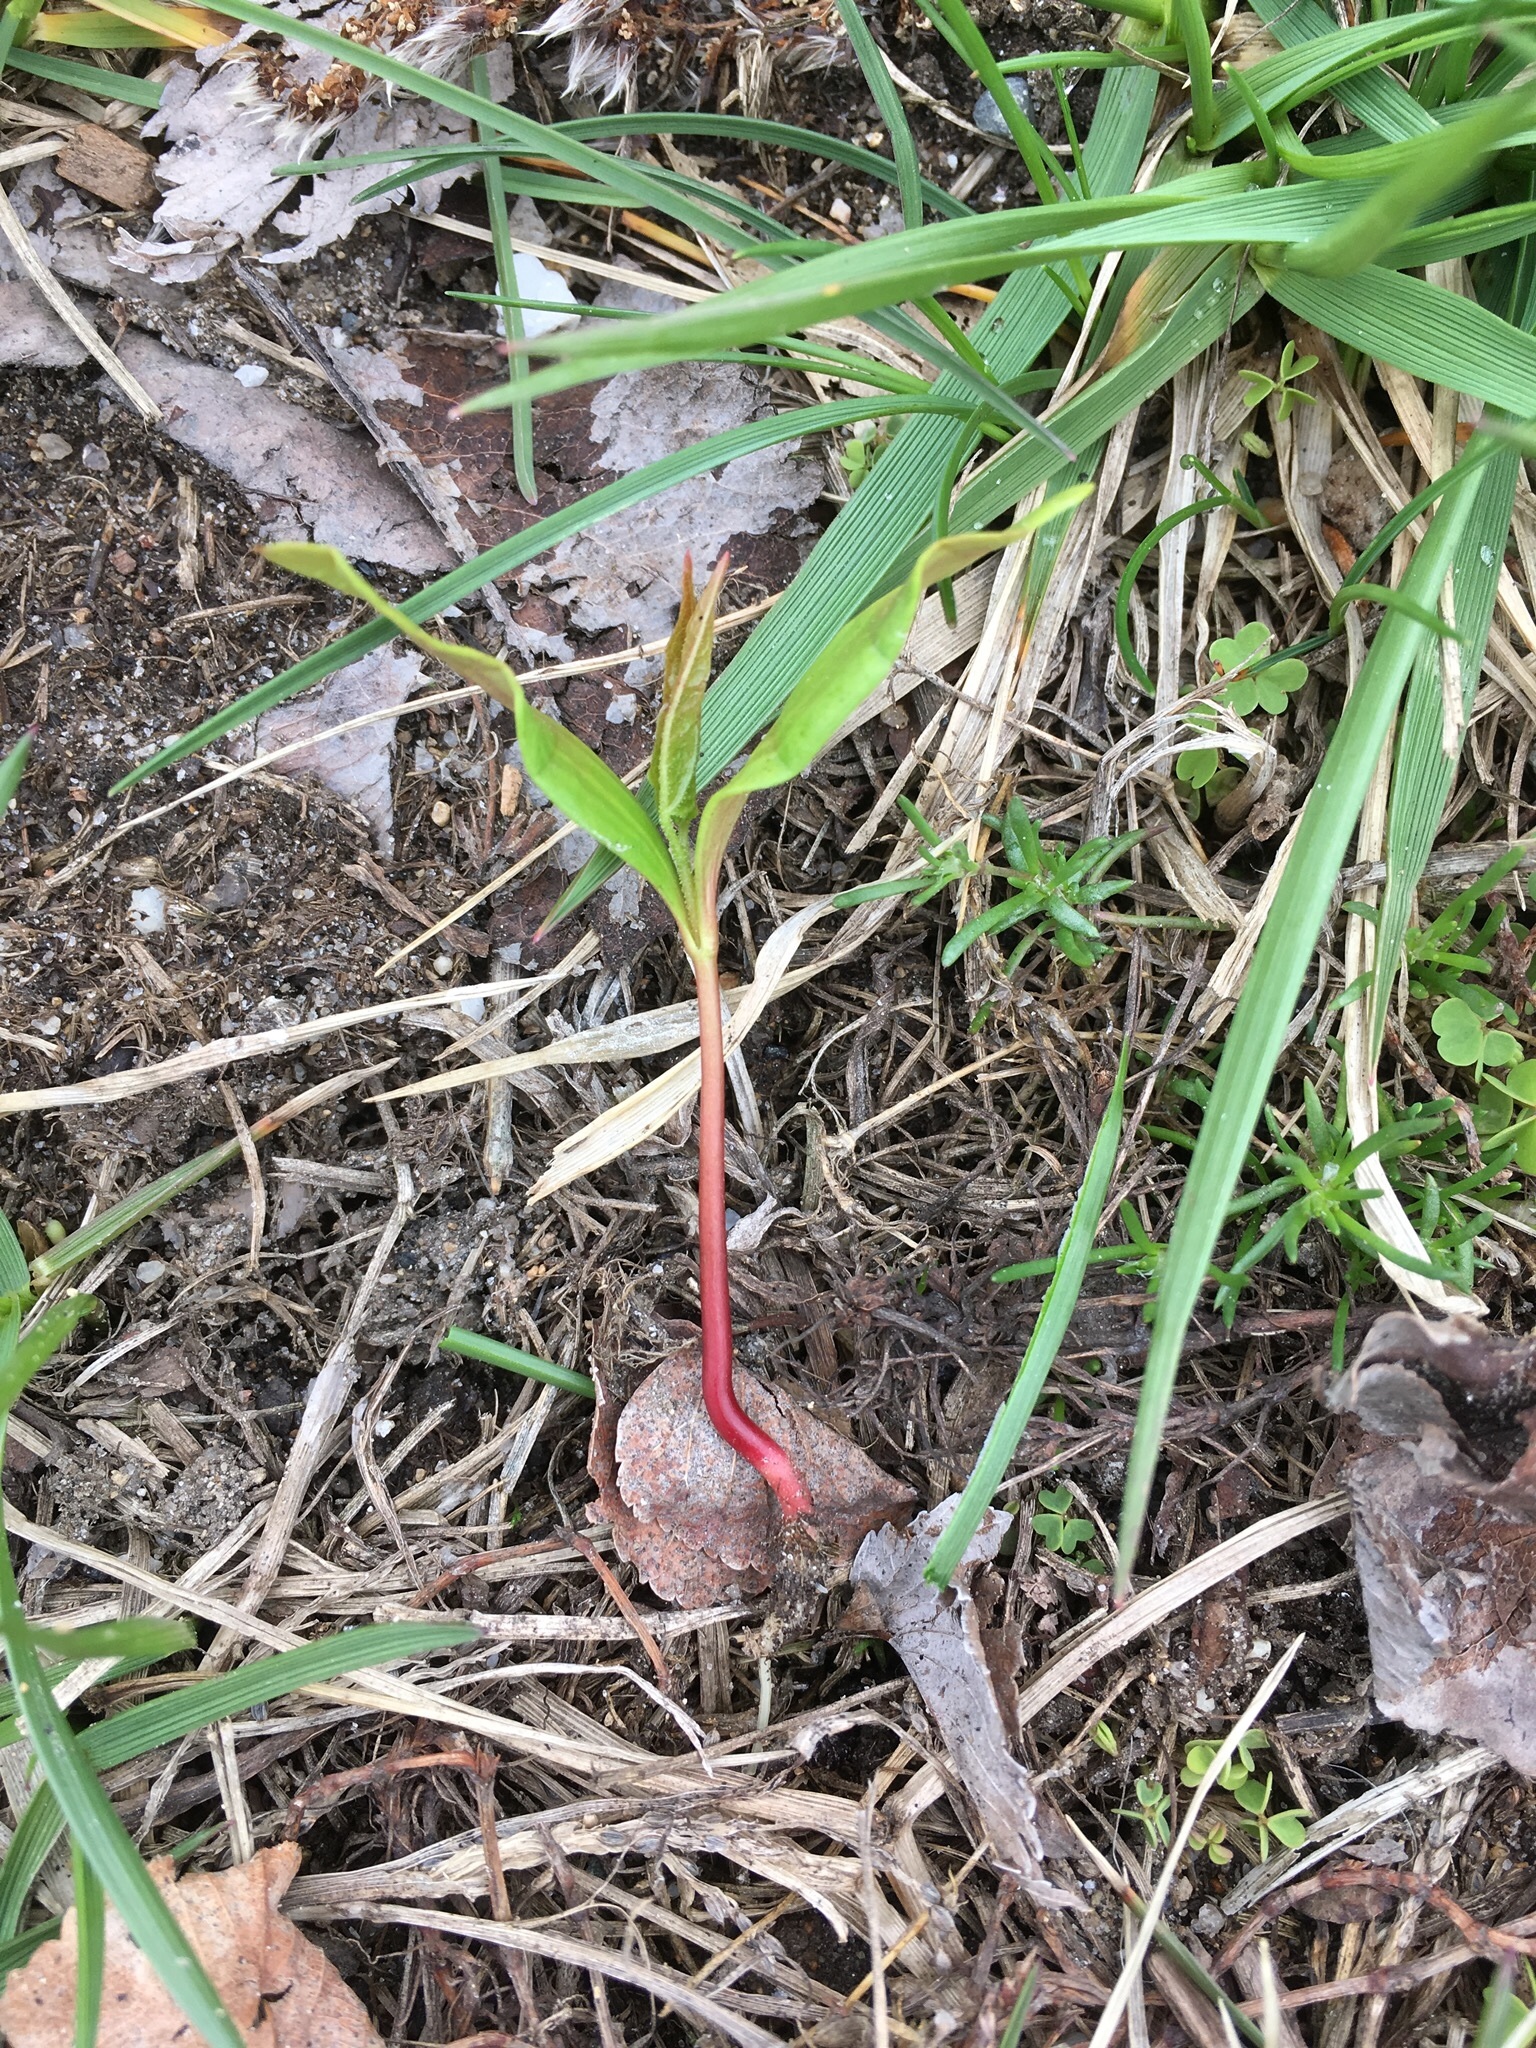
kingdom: Plantae
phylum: Tracheophyta
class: Magnoliopsida
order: Sapindales
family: Sapindaceae
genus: Acer
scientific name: Acer platanoides
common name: Norway maple
